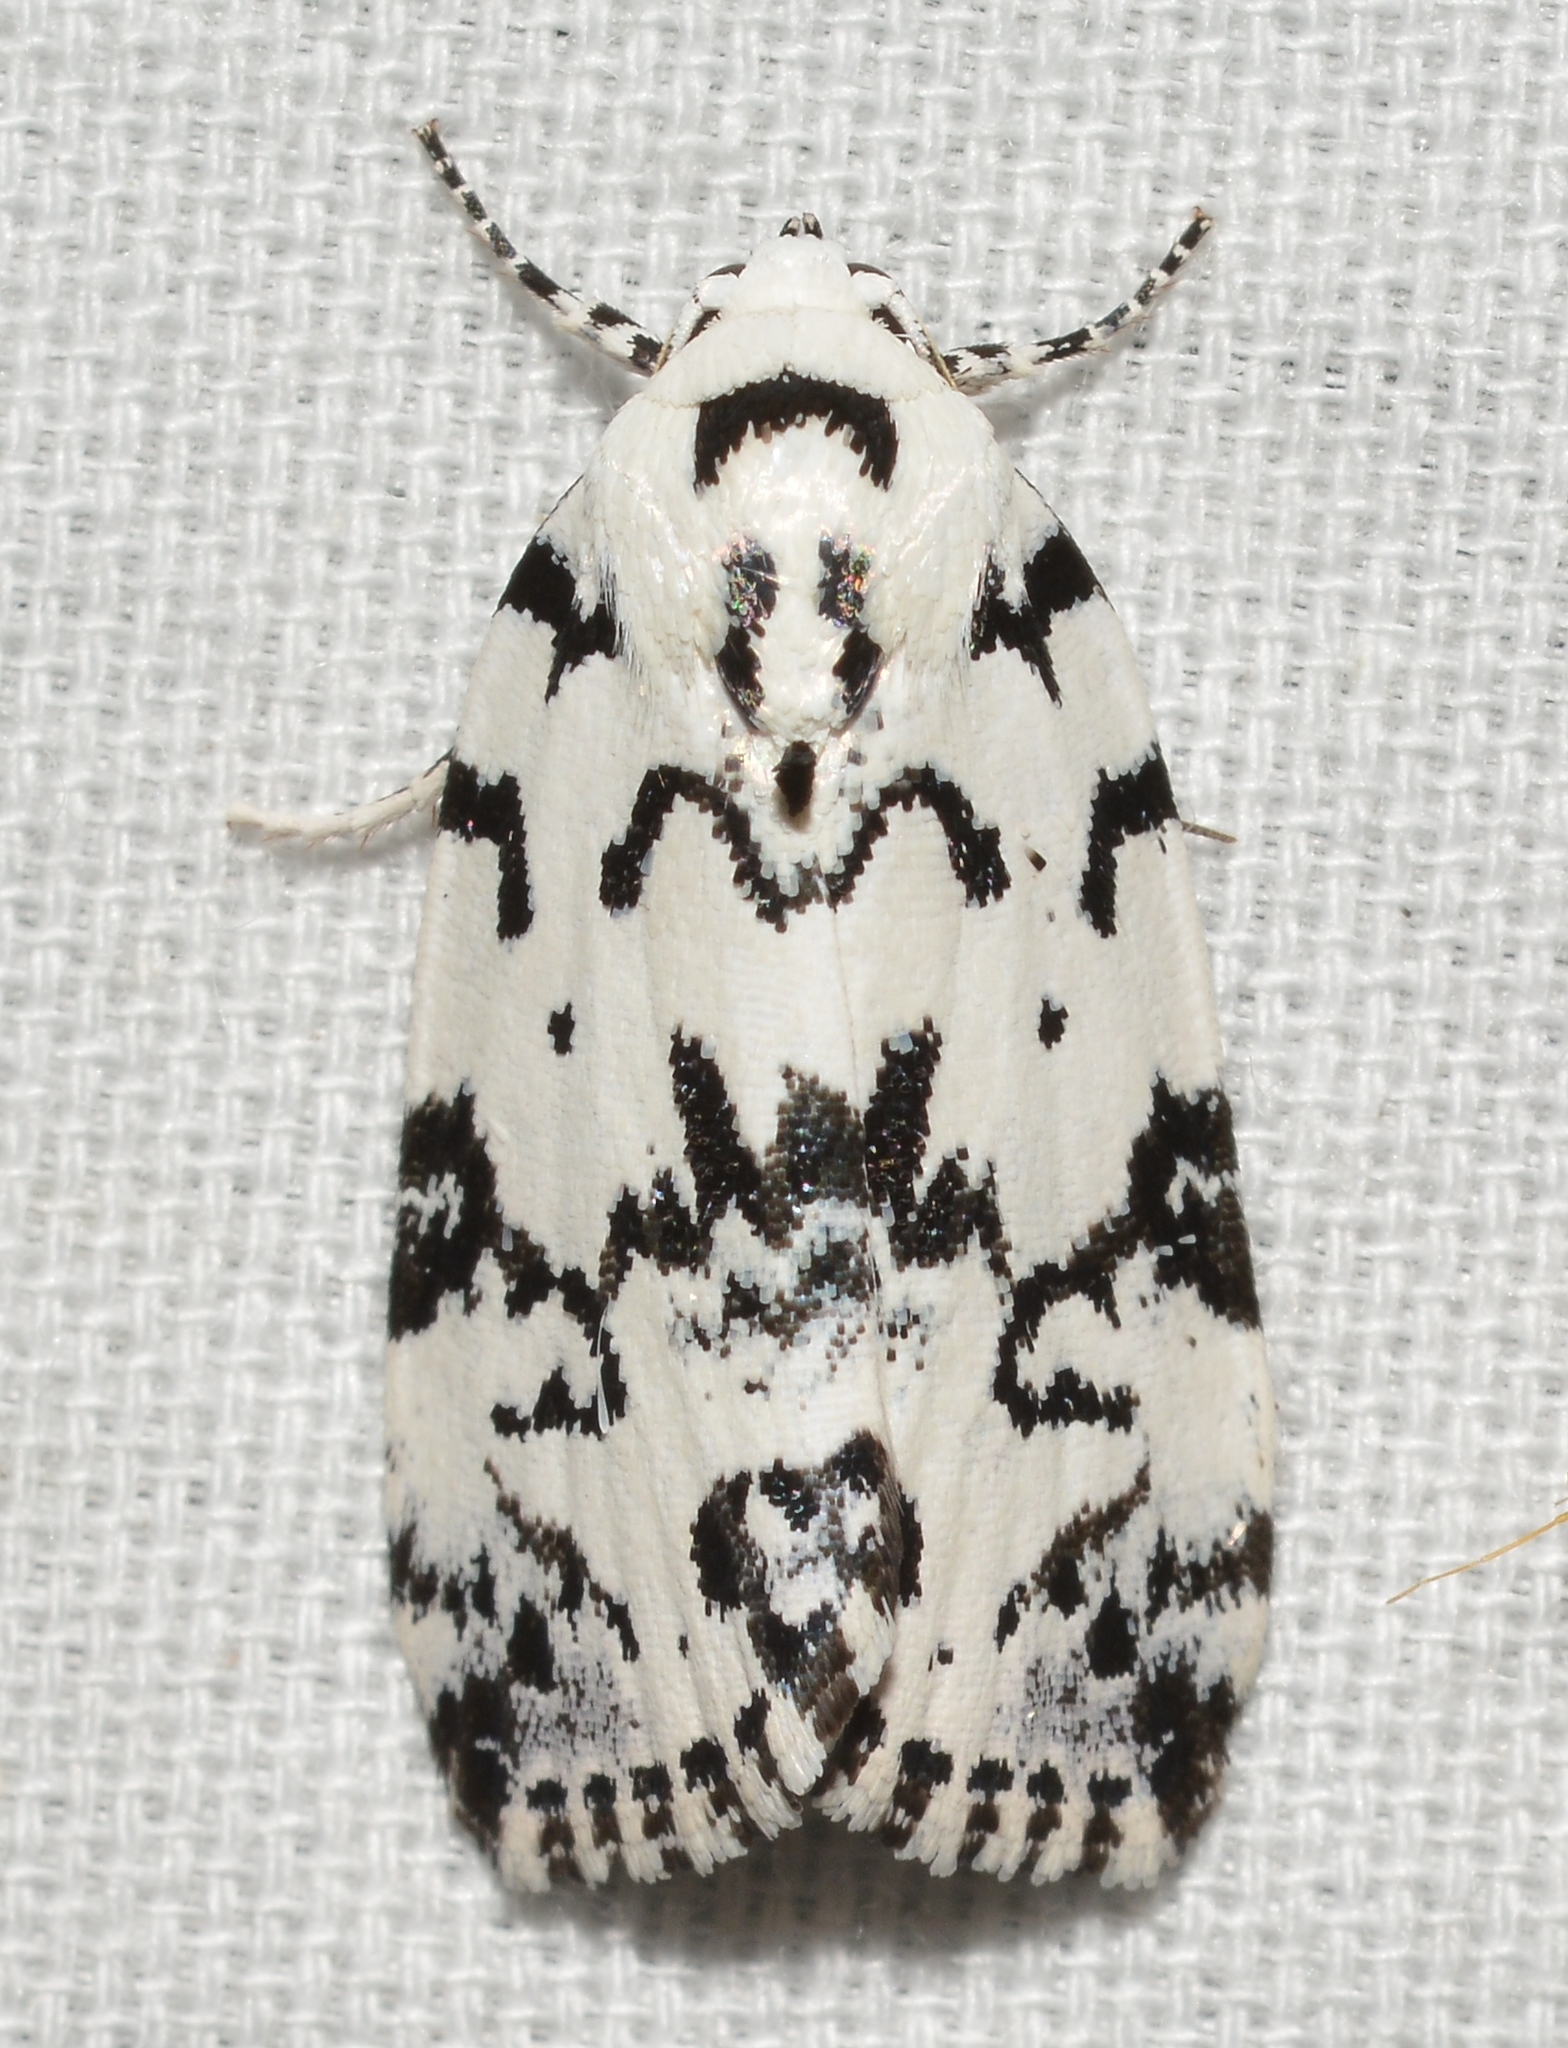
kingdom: Animalia
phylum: Arthropoda
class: Insecta
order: Lepidoptera
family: Noctuidae
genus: Polygrammate
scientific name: Polygrammate hebraeicum
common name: Hebrew moth
